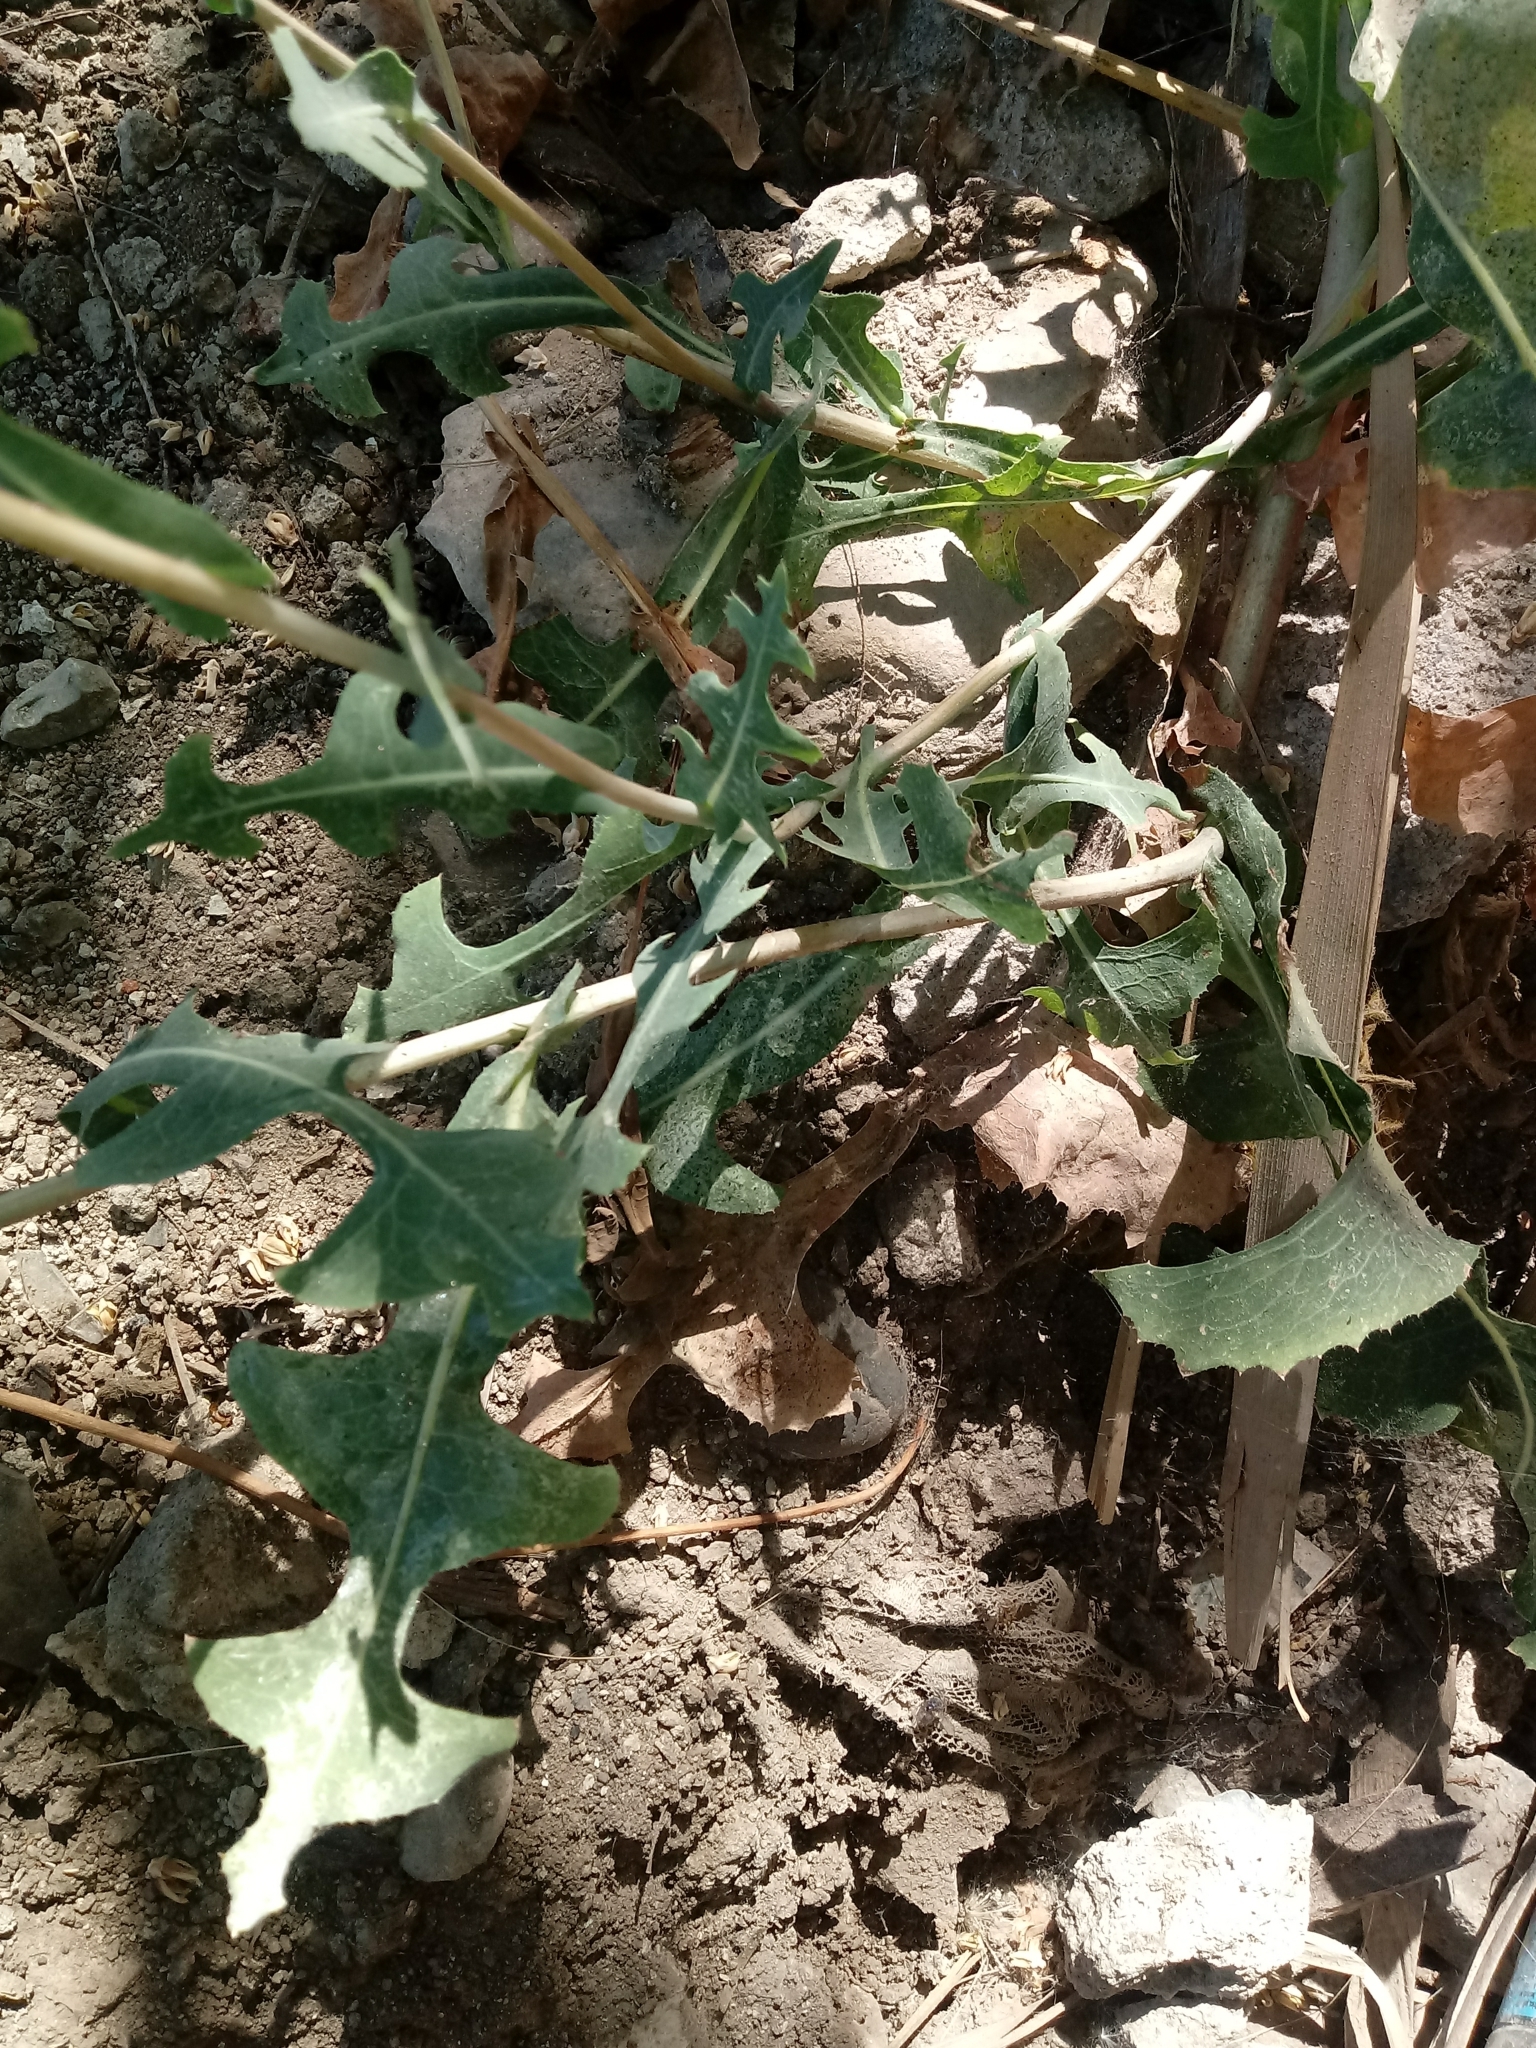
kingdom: Plantae
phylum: Tracheophyta
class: Magnoliopsida
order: Asterales
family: Asteraceae
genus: Lactuca
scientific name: Lactuca serriola
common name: Prickly lettuce
